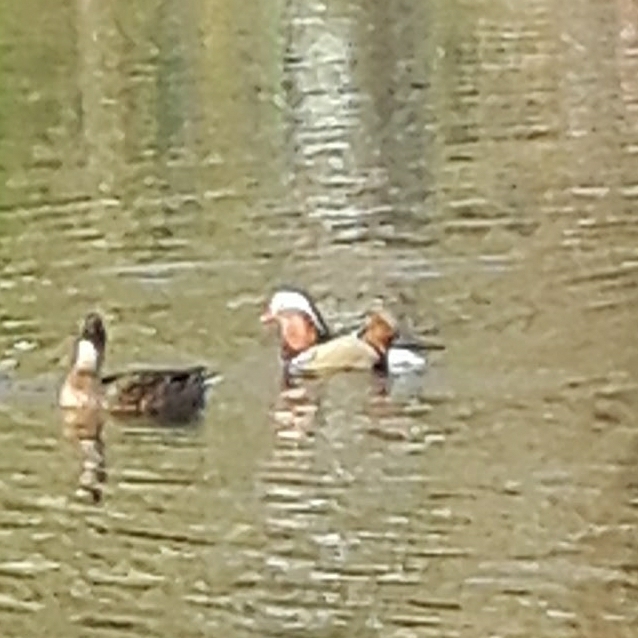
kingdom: Animalia
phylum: Chordata
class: Aves
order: Anseriformes
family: Anatidae
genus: Aix
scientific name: Aix galericulata
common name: Mandarin duck
